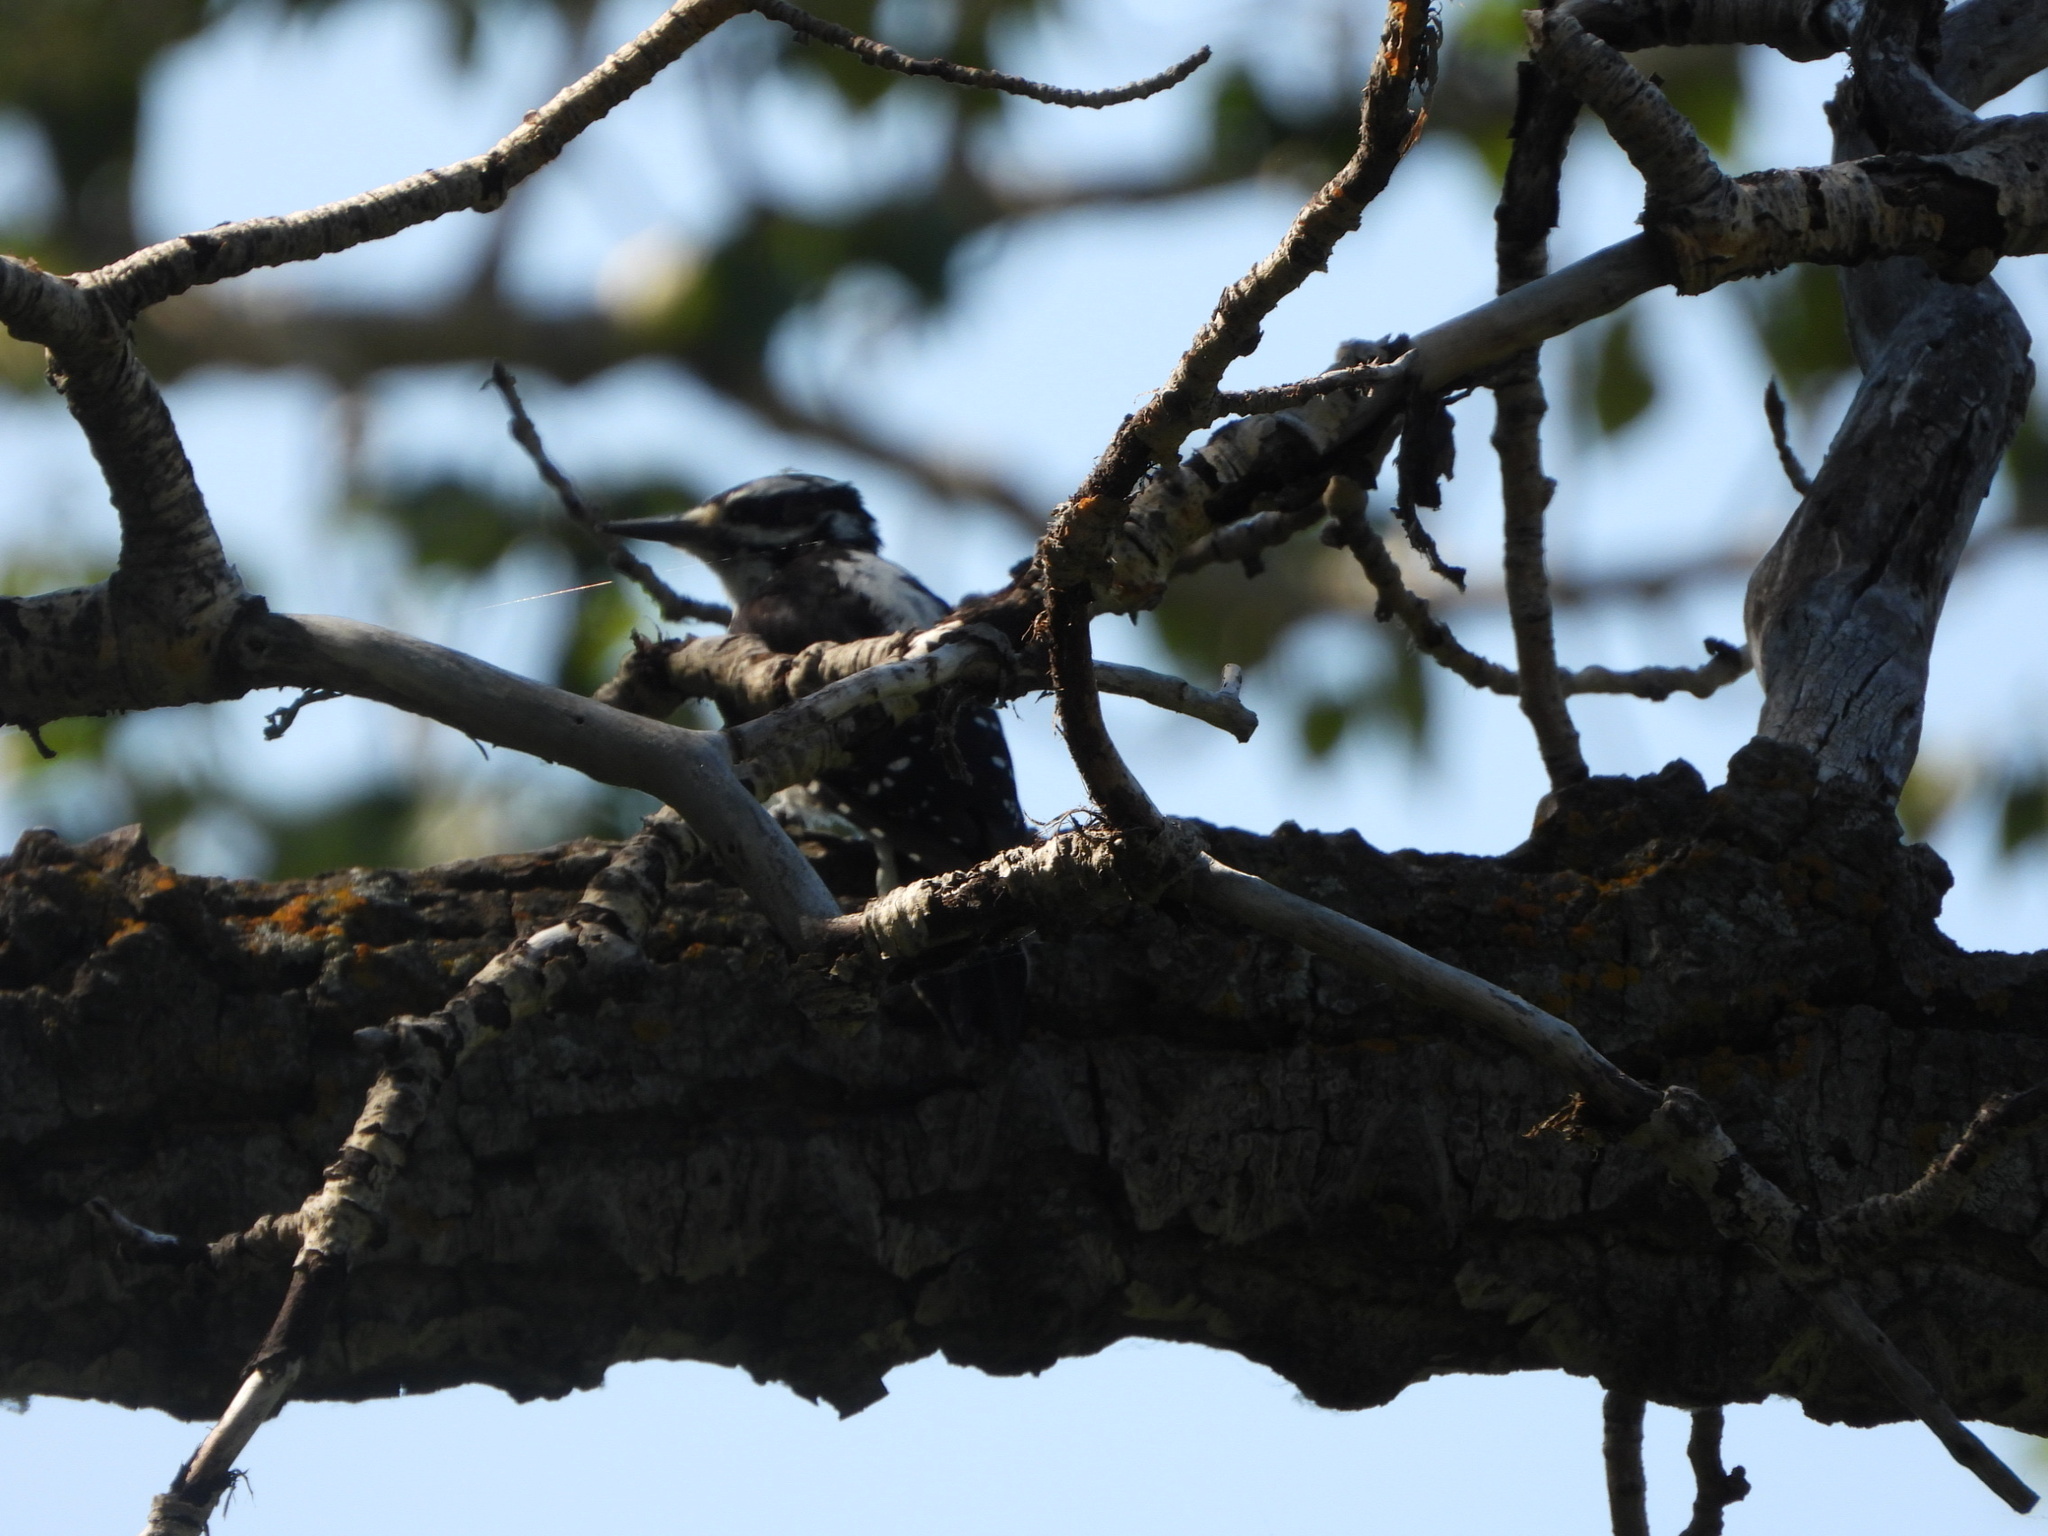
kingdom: Animalia
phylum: Chordata
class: Aves
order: Piciformes
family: Picidae
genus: Leuconotopicus
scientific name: Leuconotopicus villosus
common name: Hairy woodpecker
